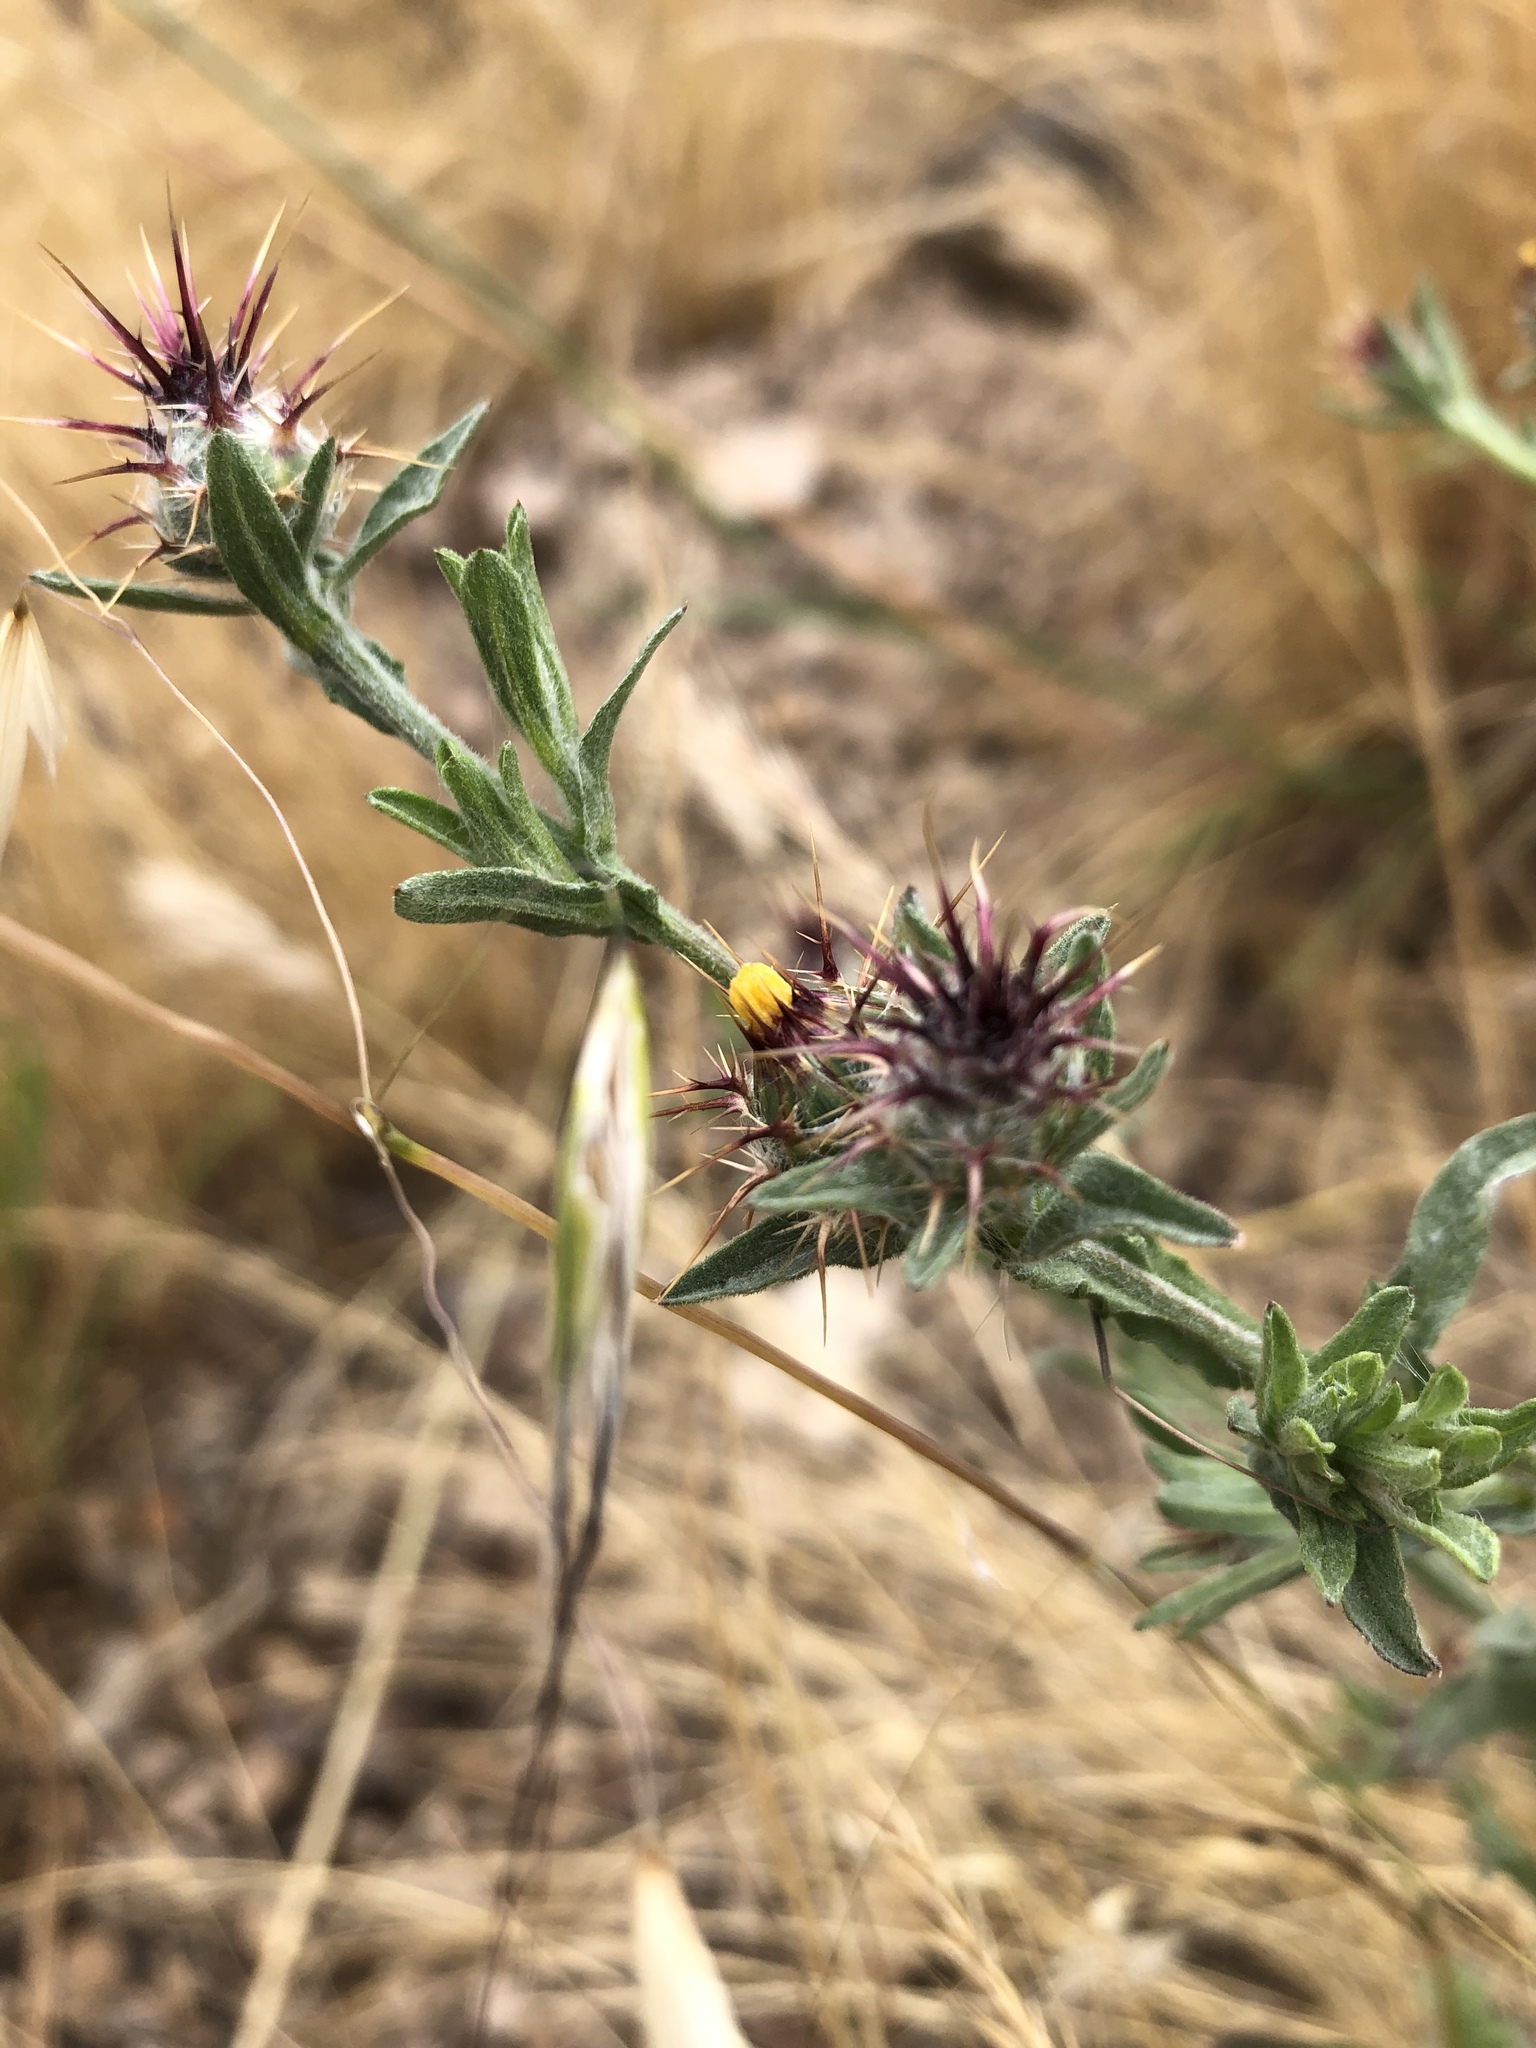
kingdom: Plantae
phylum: Tracheophyta
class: Magnoliopsida
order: Asterales
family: Asteraceae
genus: Centaurea
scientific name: Centaurea melitensis
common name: Maltese star-thistle
